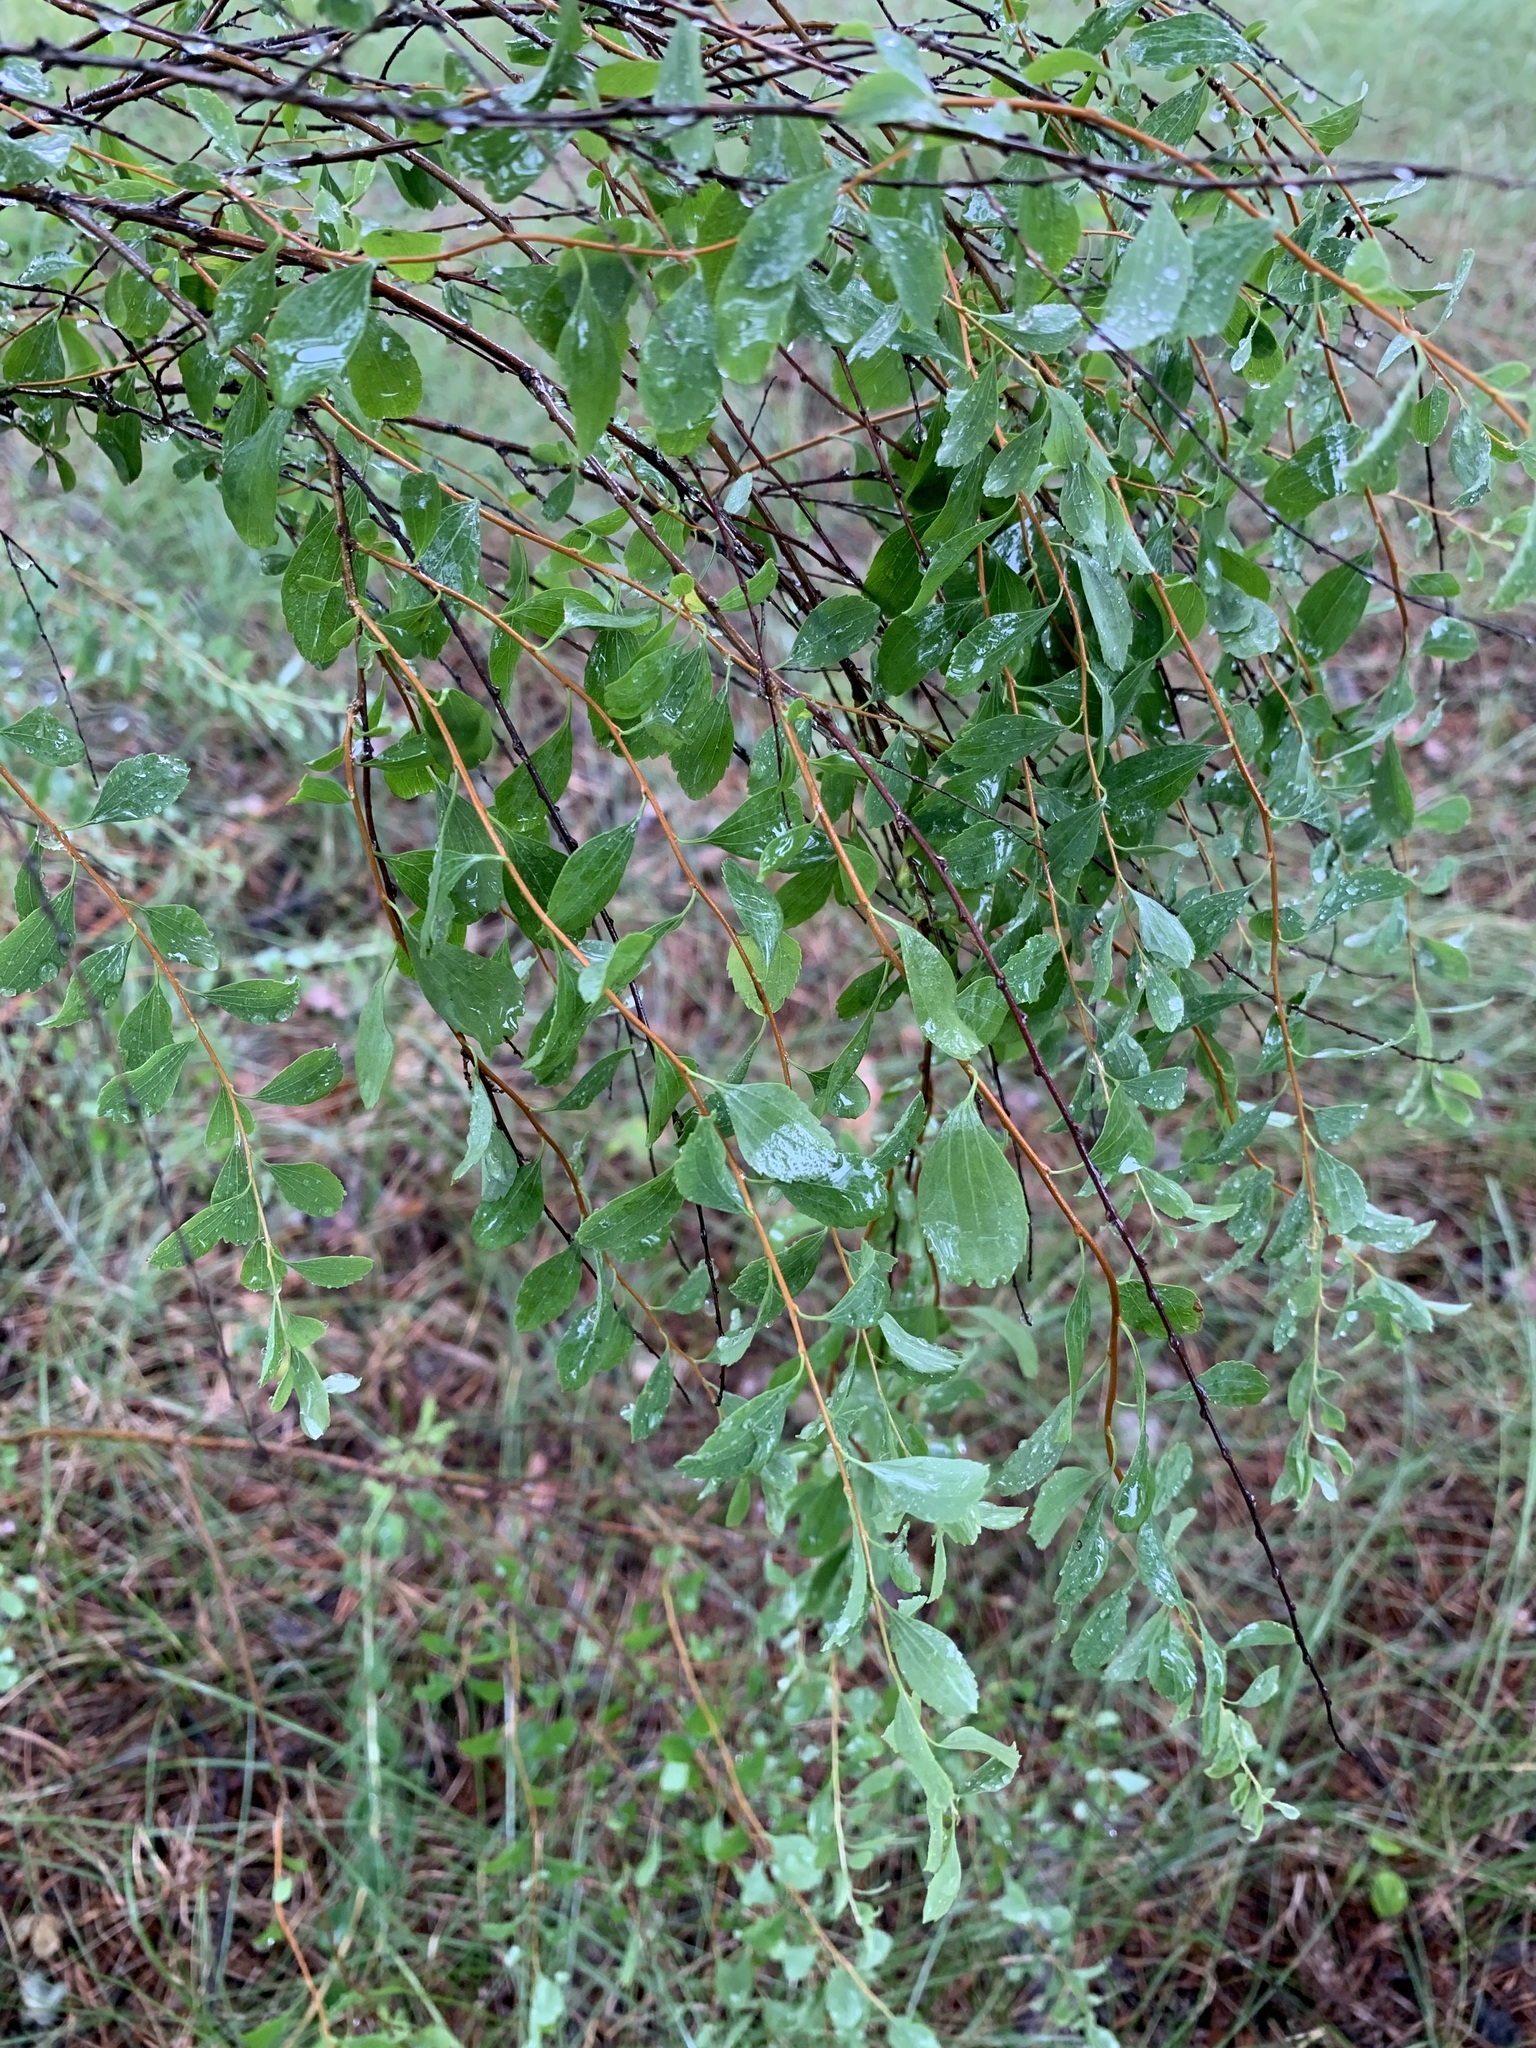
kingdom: Plantae
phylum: Tracheophyta
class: Magnoliopsida
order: Rosales
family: Rosaceae
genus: Spiraea
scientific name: Spiraea crenata
